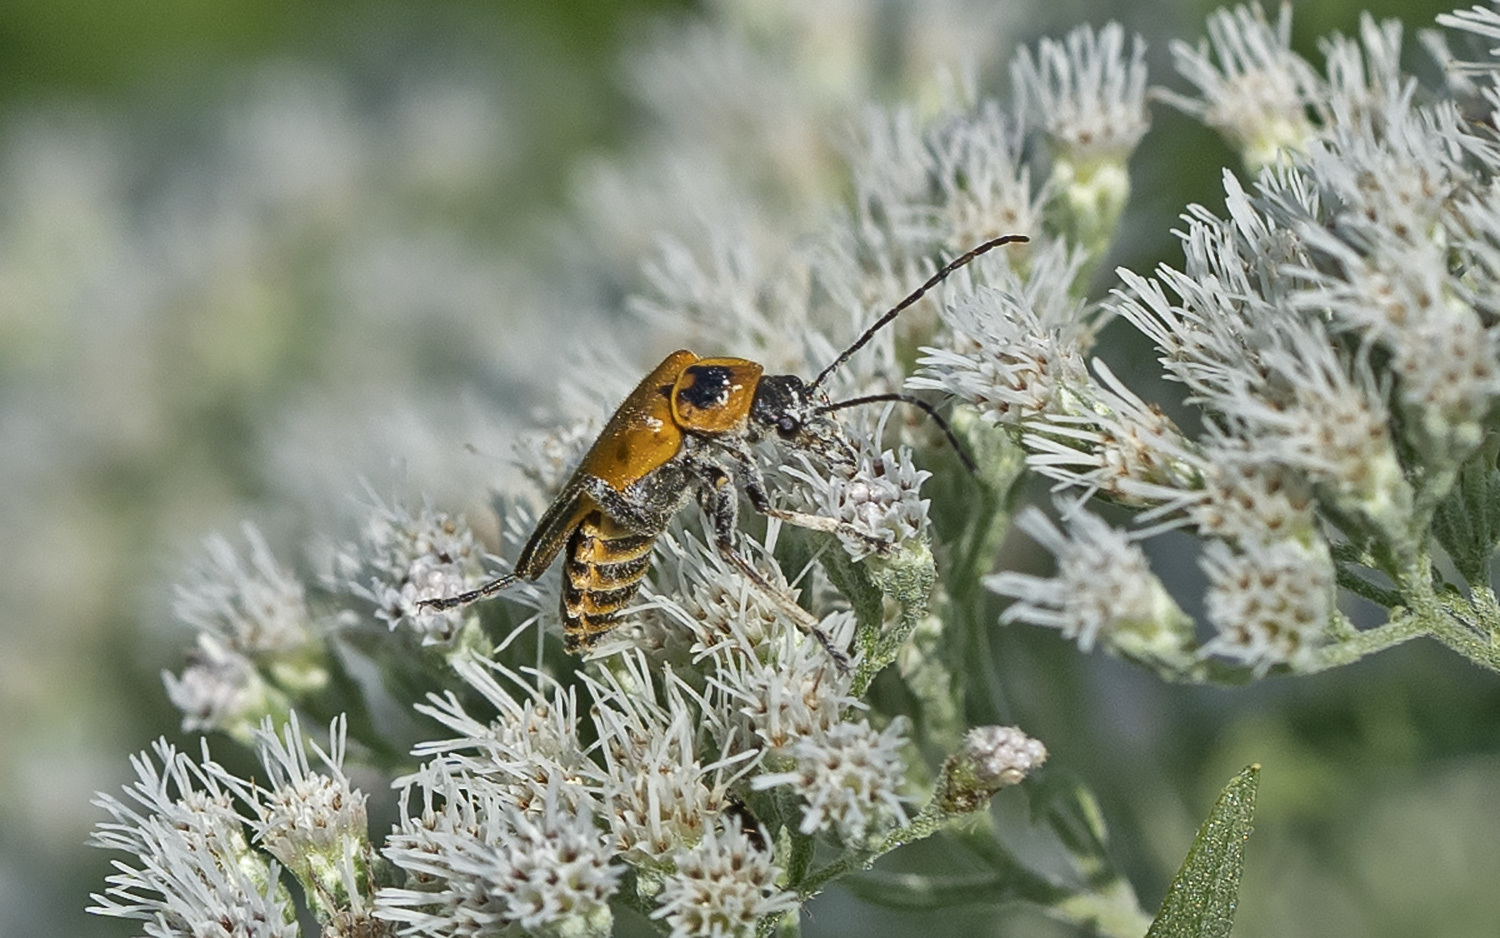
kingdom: Animalia
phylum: Arthropoda
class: Insecta
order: Coleoptera
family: Cantharidae
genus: Chauliognathus
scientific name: Chauliognathus pensylvanicus
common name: Goldenrod soldier beetle
